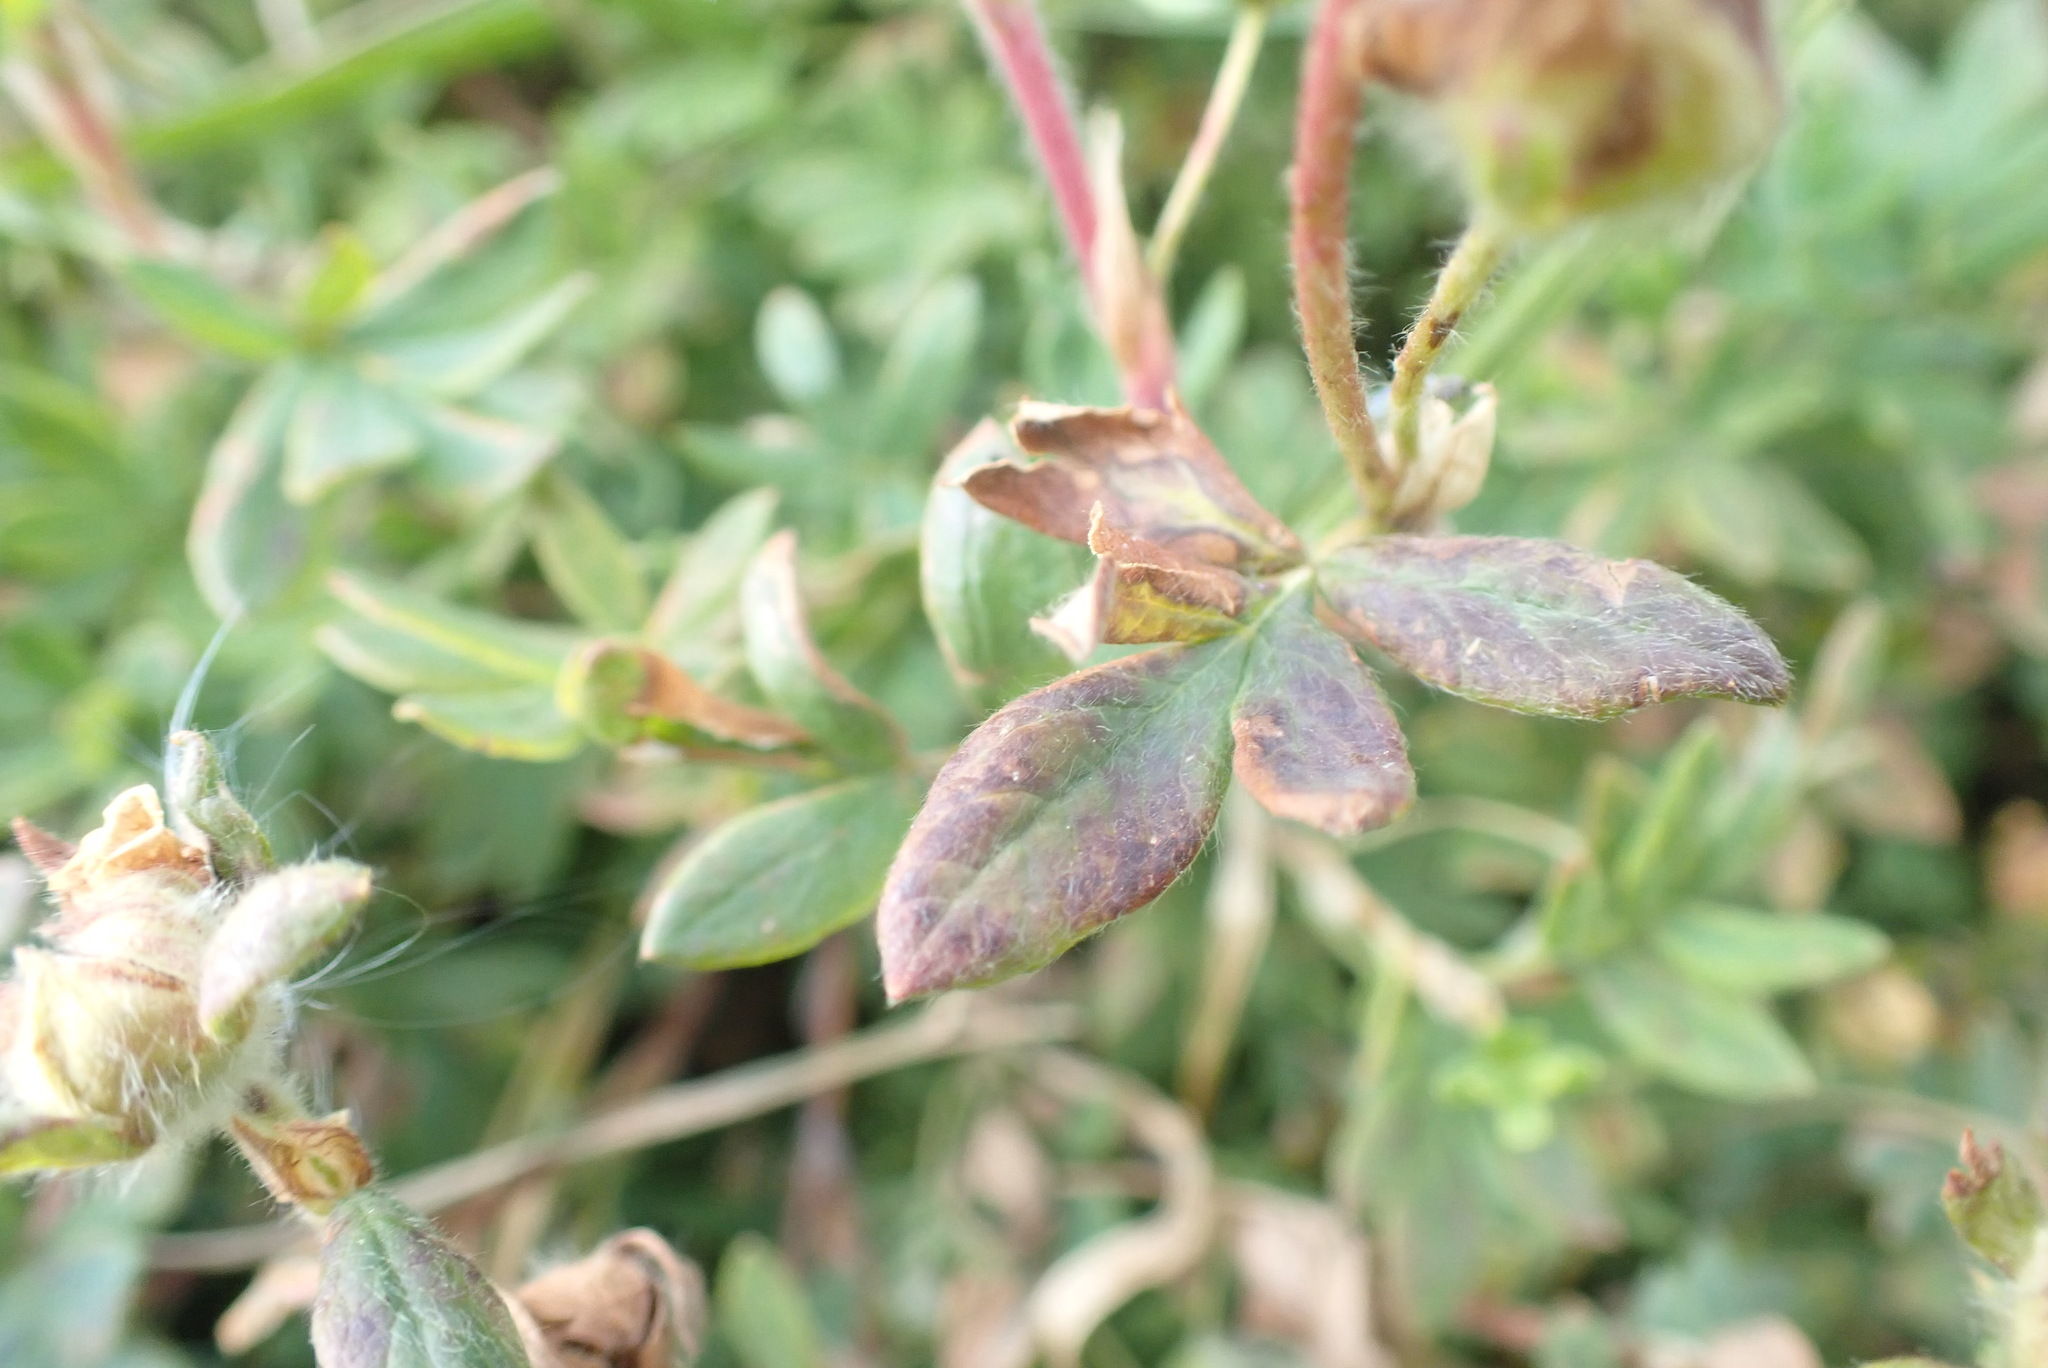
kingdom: Plantae
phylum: Tracheophyta
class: Magnoliopsida
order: Rosales
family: Rosaceae
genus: Dasiphora
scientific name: Dasiphora fruticosa
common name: Shrubby cinquefoil
